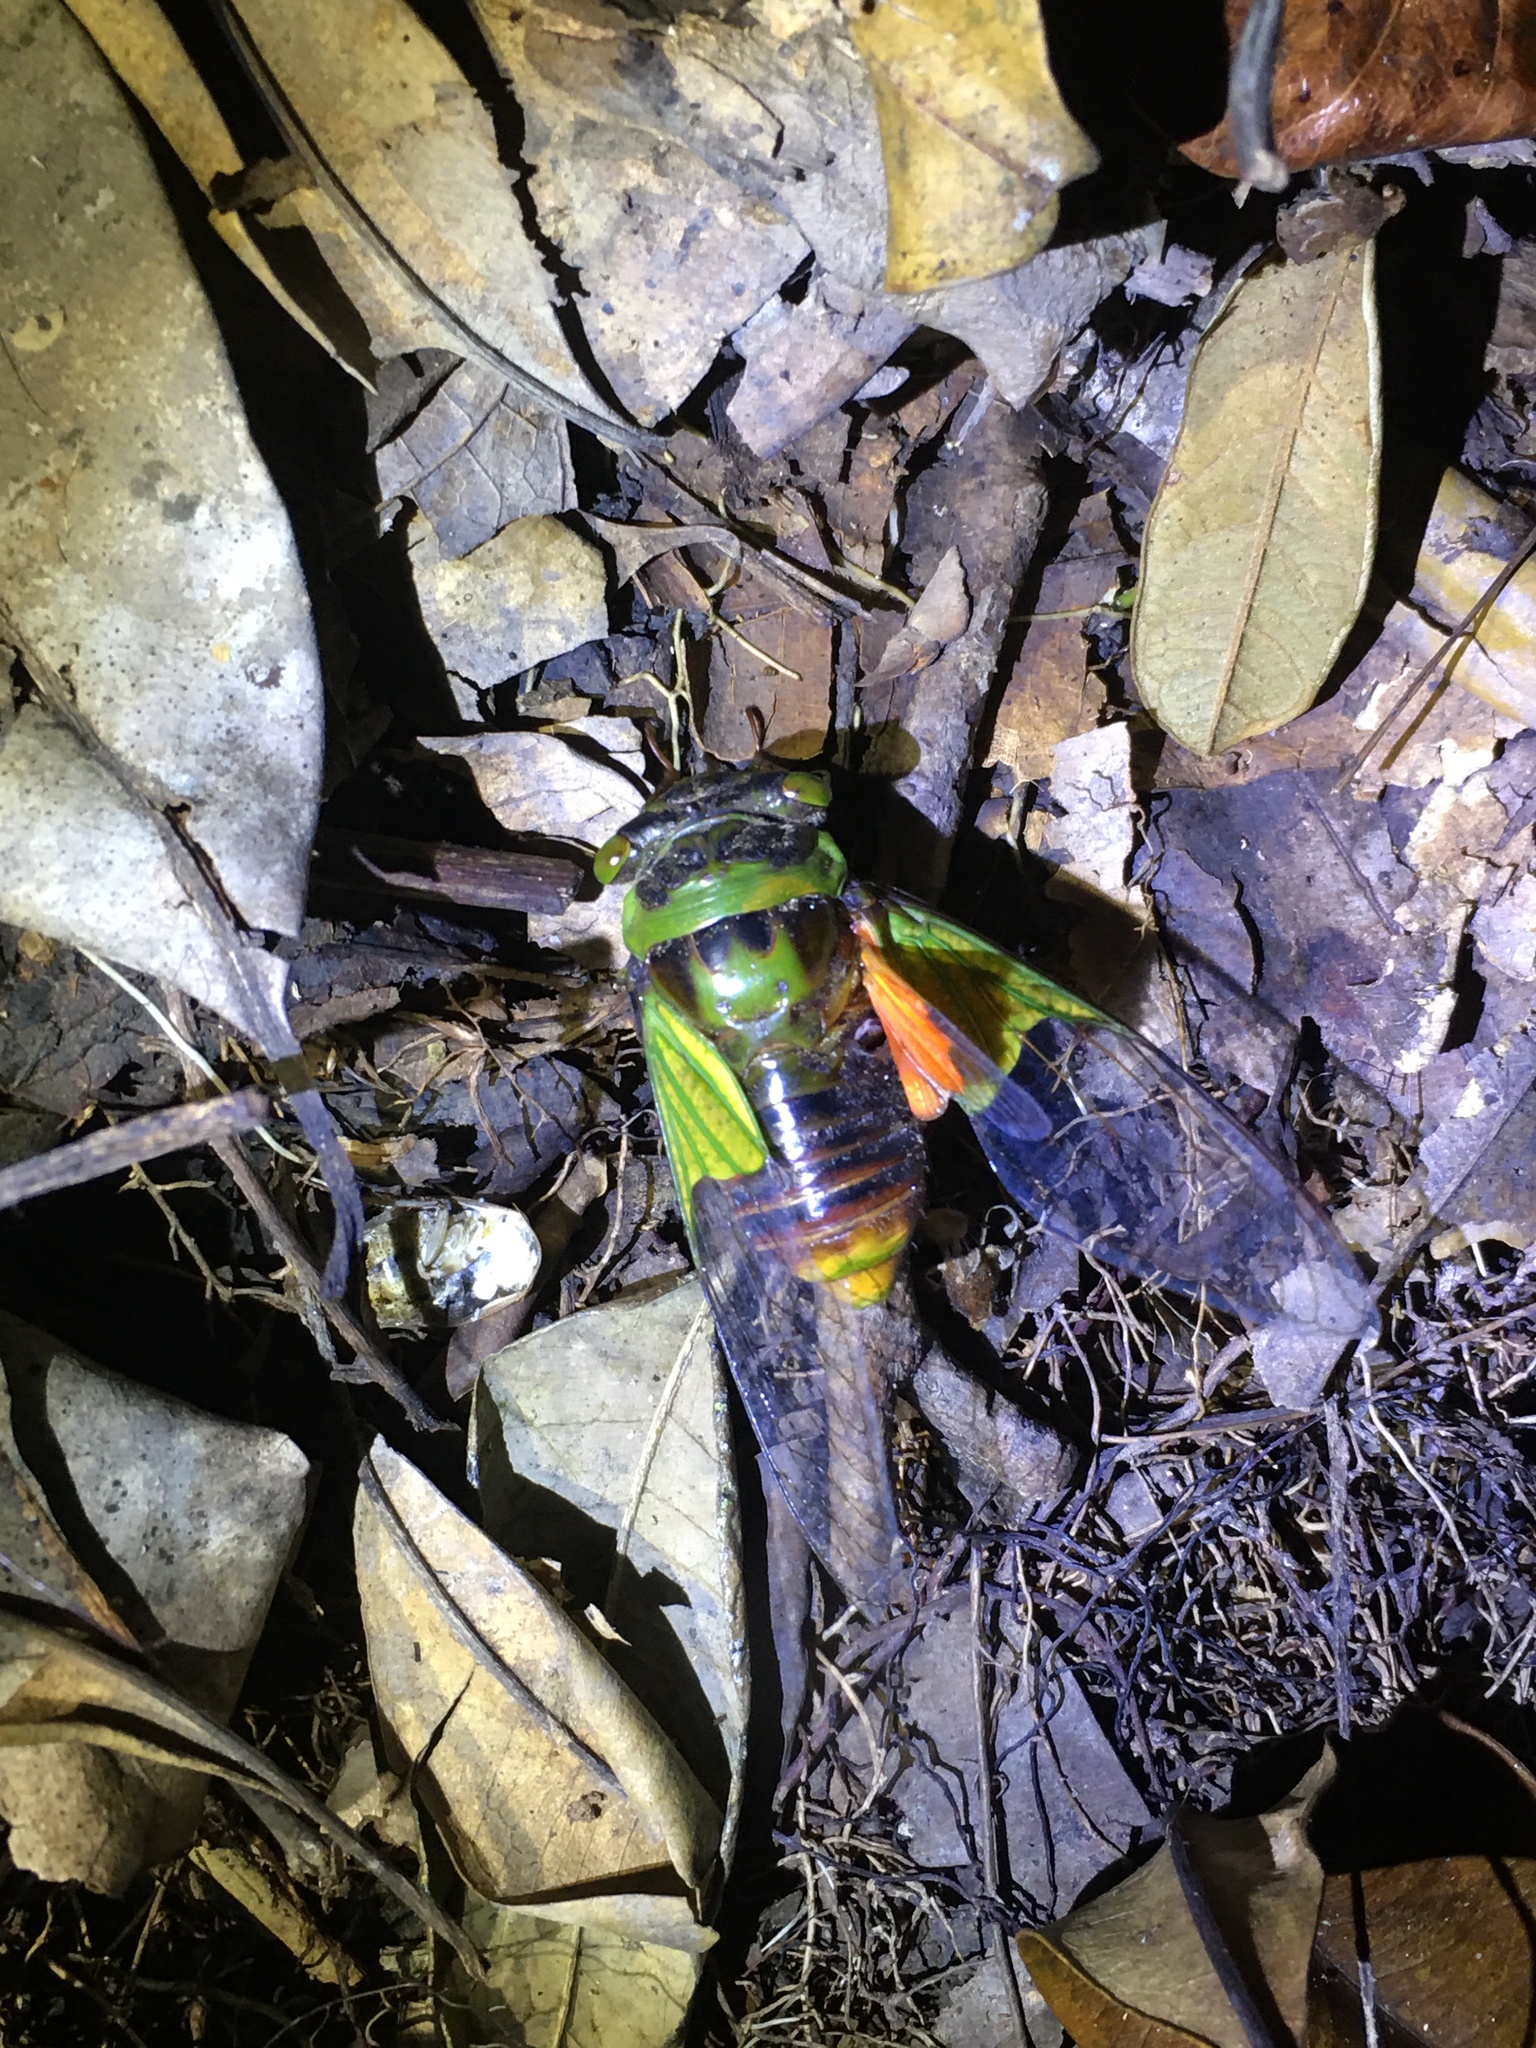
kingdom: Animalia
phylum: Arthropoda
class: Insecta
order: Hemiptera
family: Cicadidae
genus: Hemisciera
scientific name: Hemisciera maculipennis
